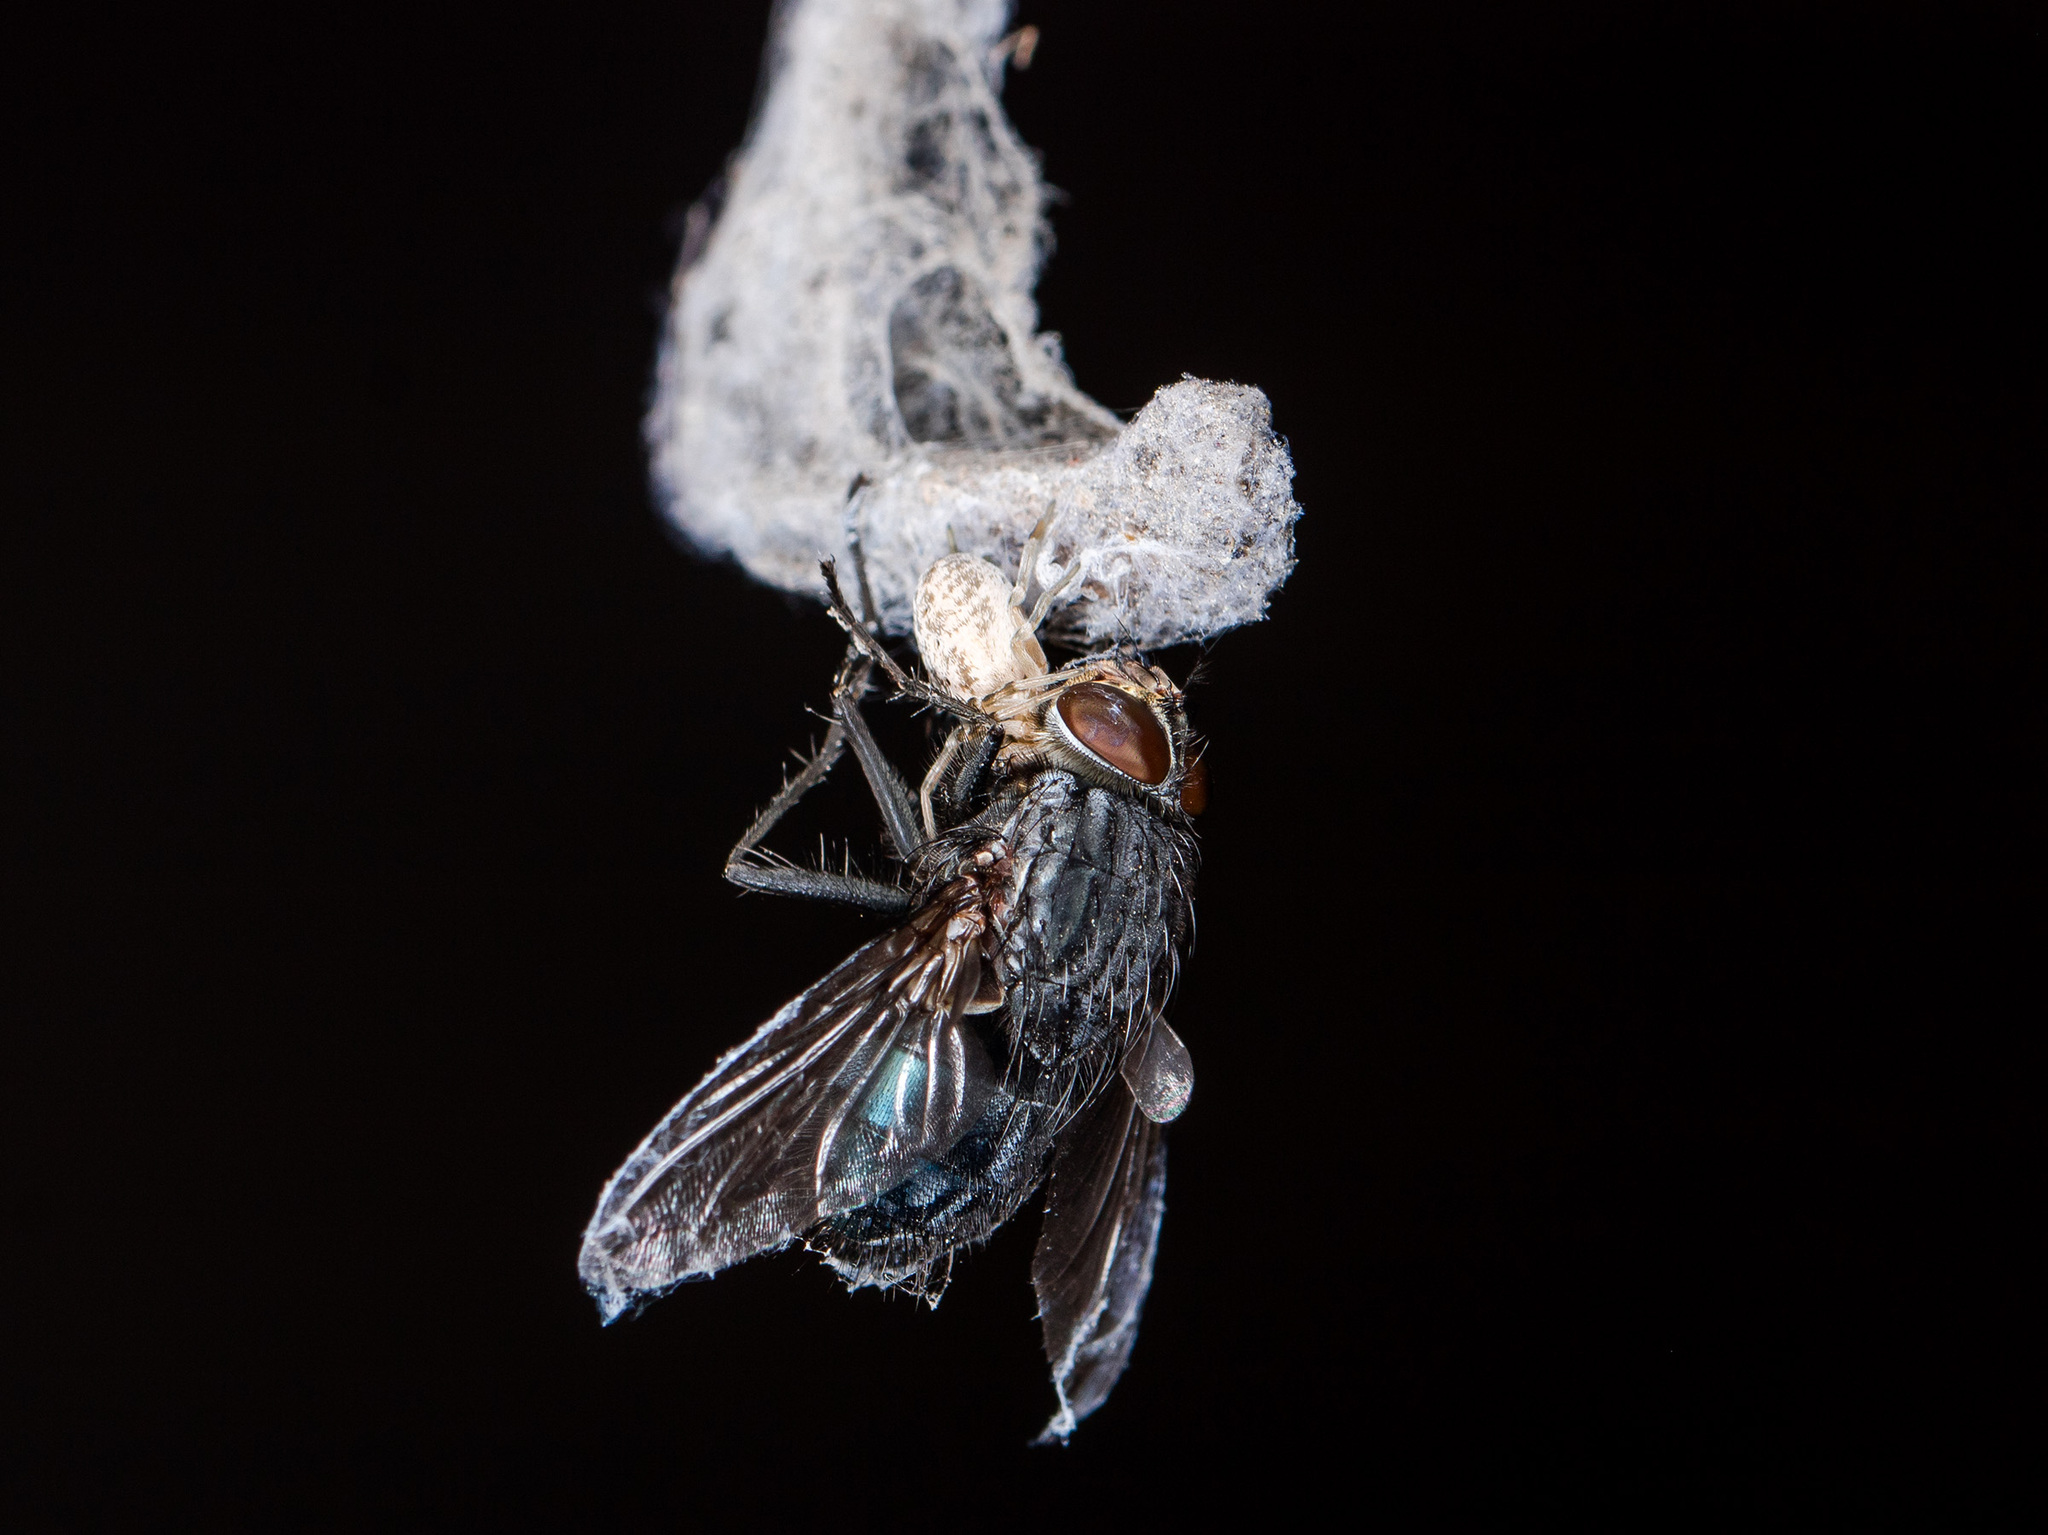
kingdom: Animalia
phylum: Arthropoda
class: Arachnida
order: Araneae
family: Dictynidae
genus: Dictynomorpha
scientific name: Dictynomorpha strandi
